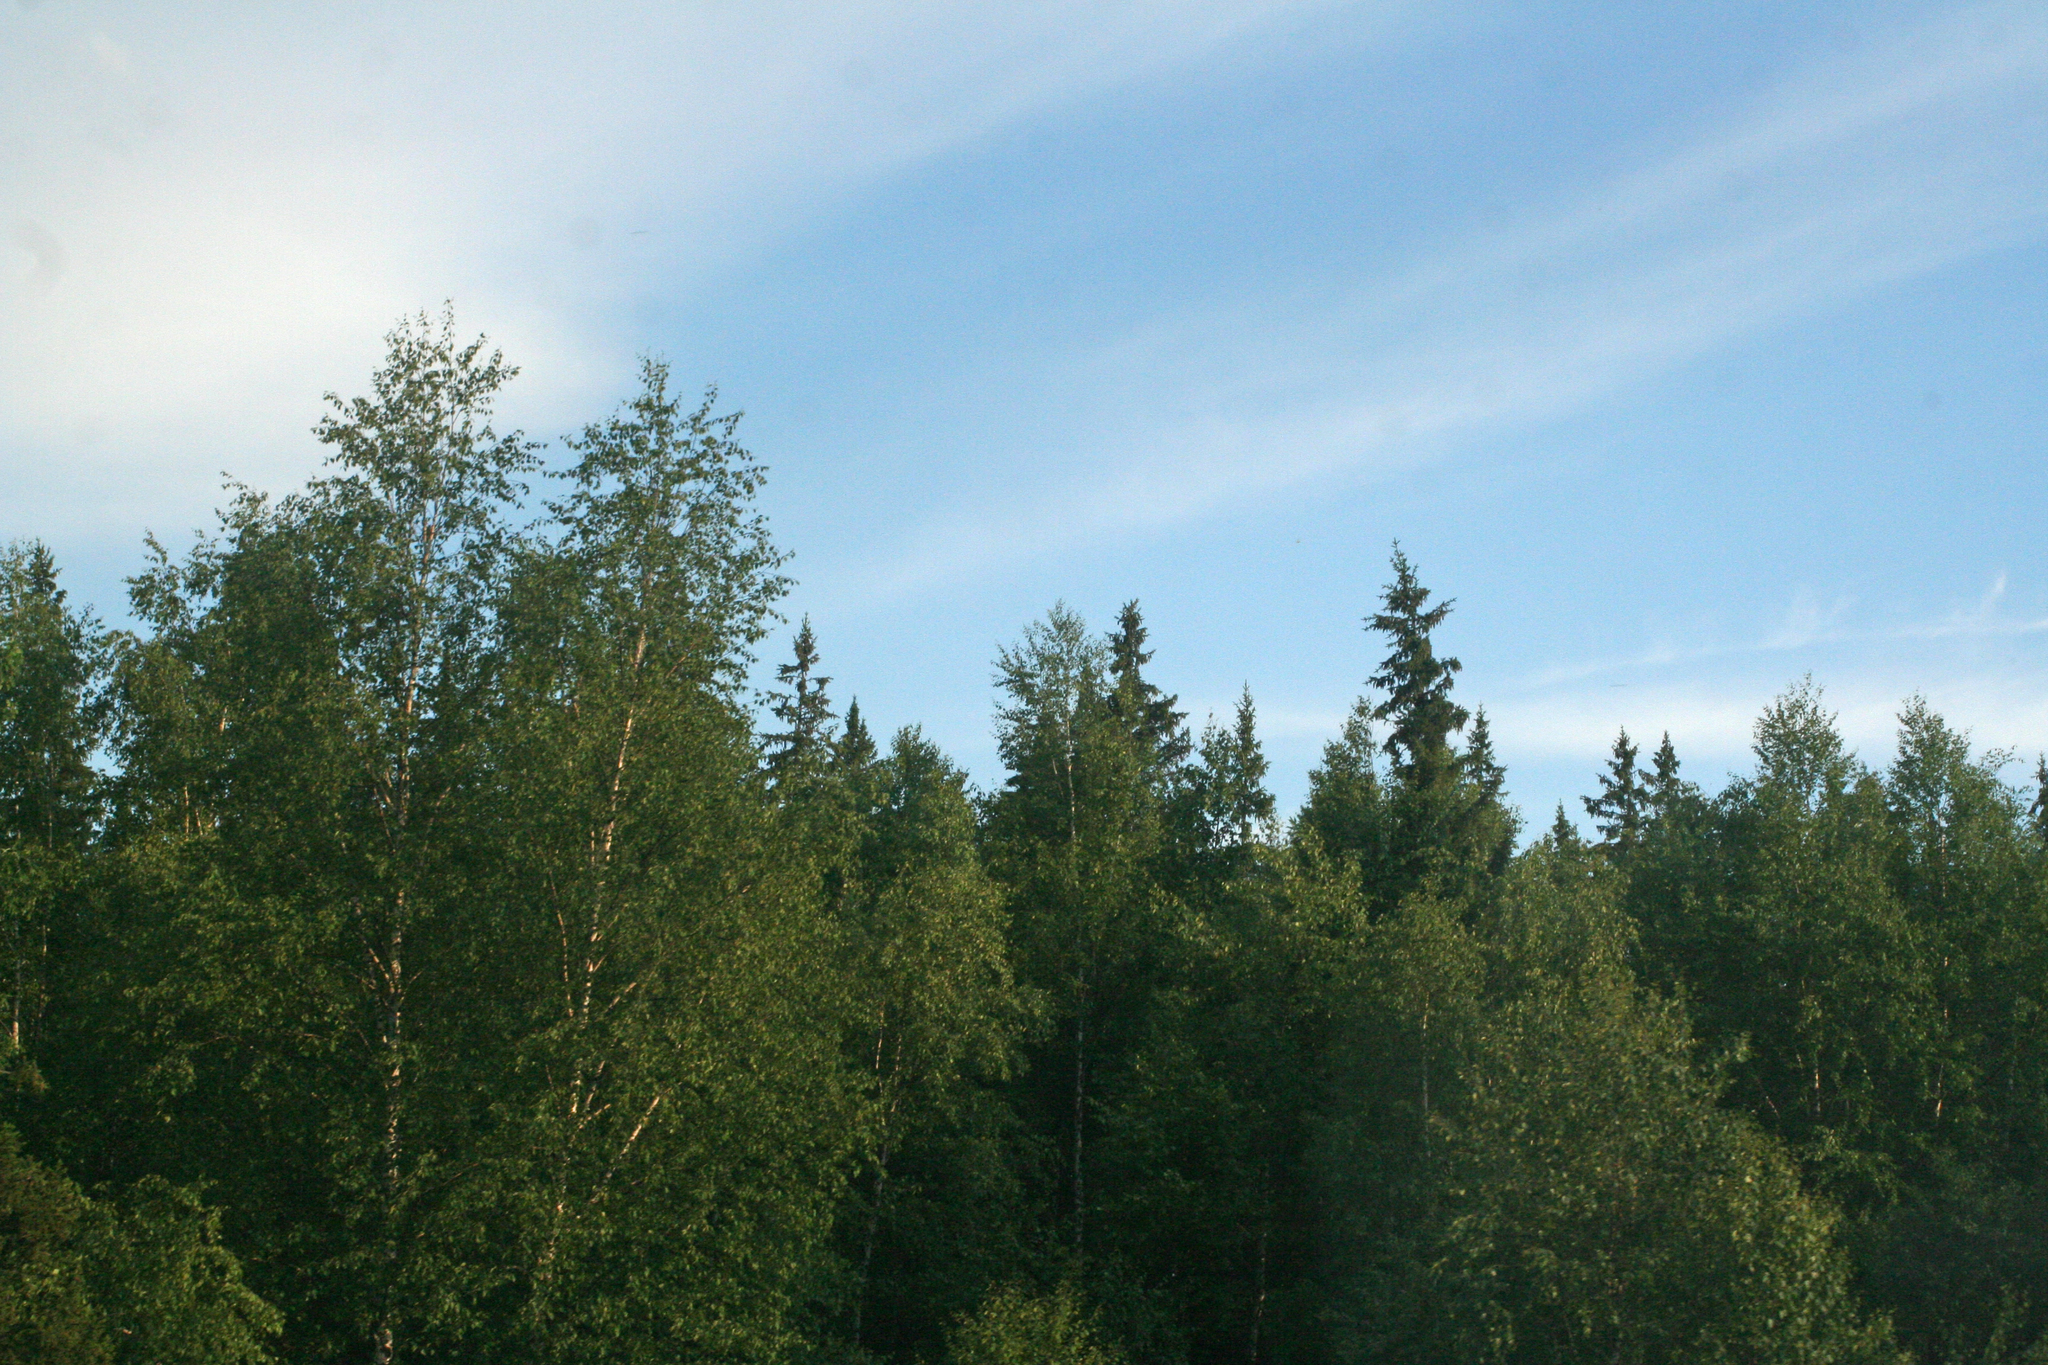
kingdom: Plantae
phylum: Tracheophyta
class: Pinopsida
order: Pinales
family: Pinaceae
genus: Picea
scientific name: Picea obovata
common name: Siberian spruce
